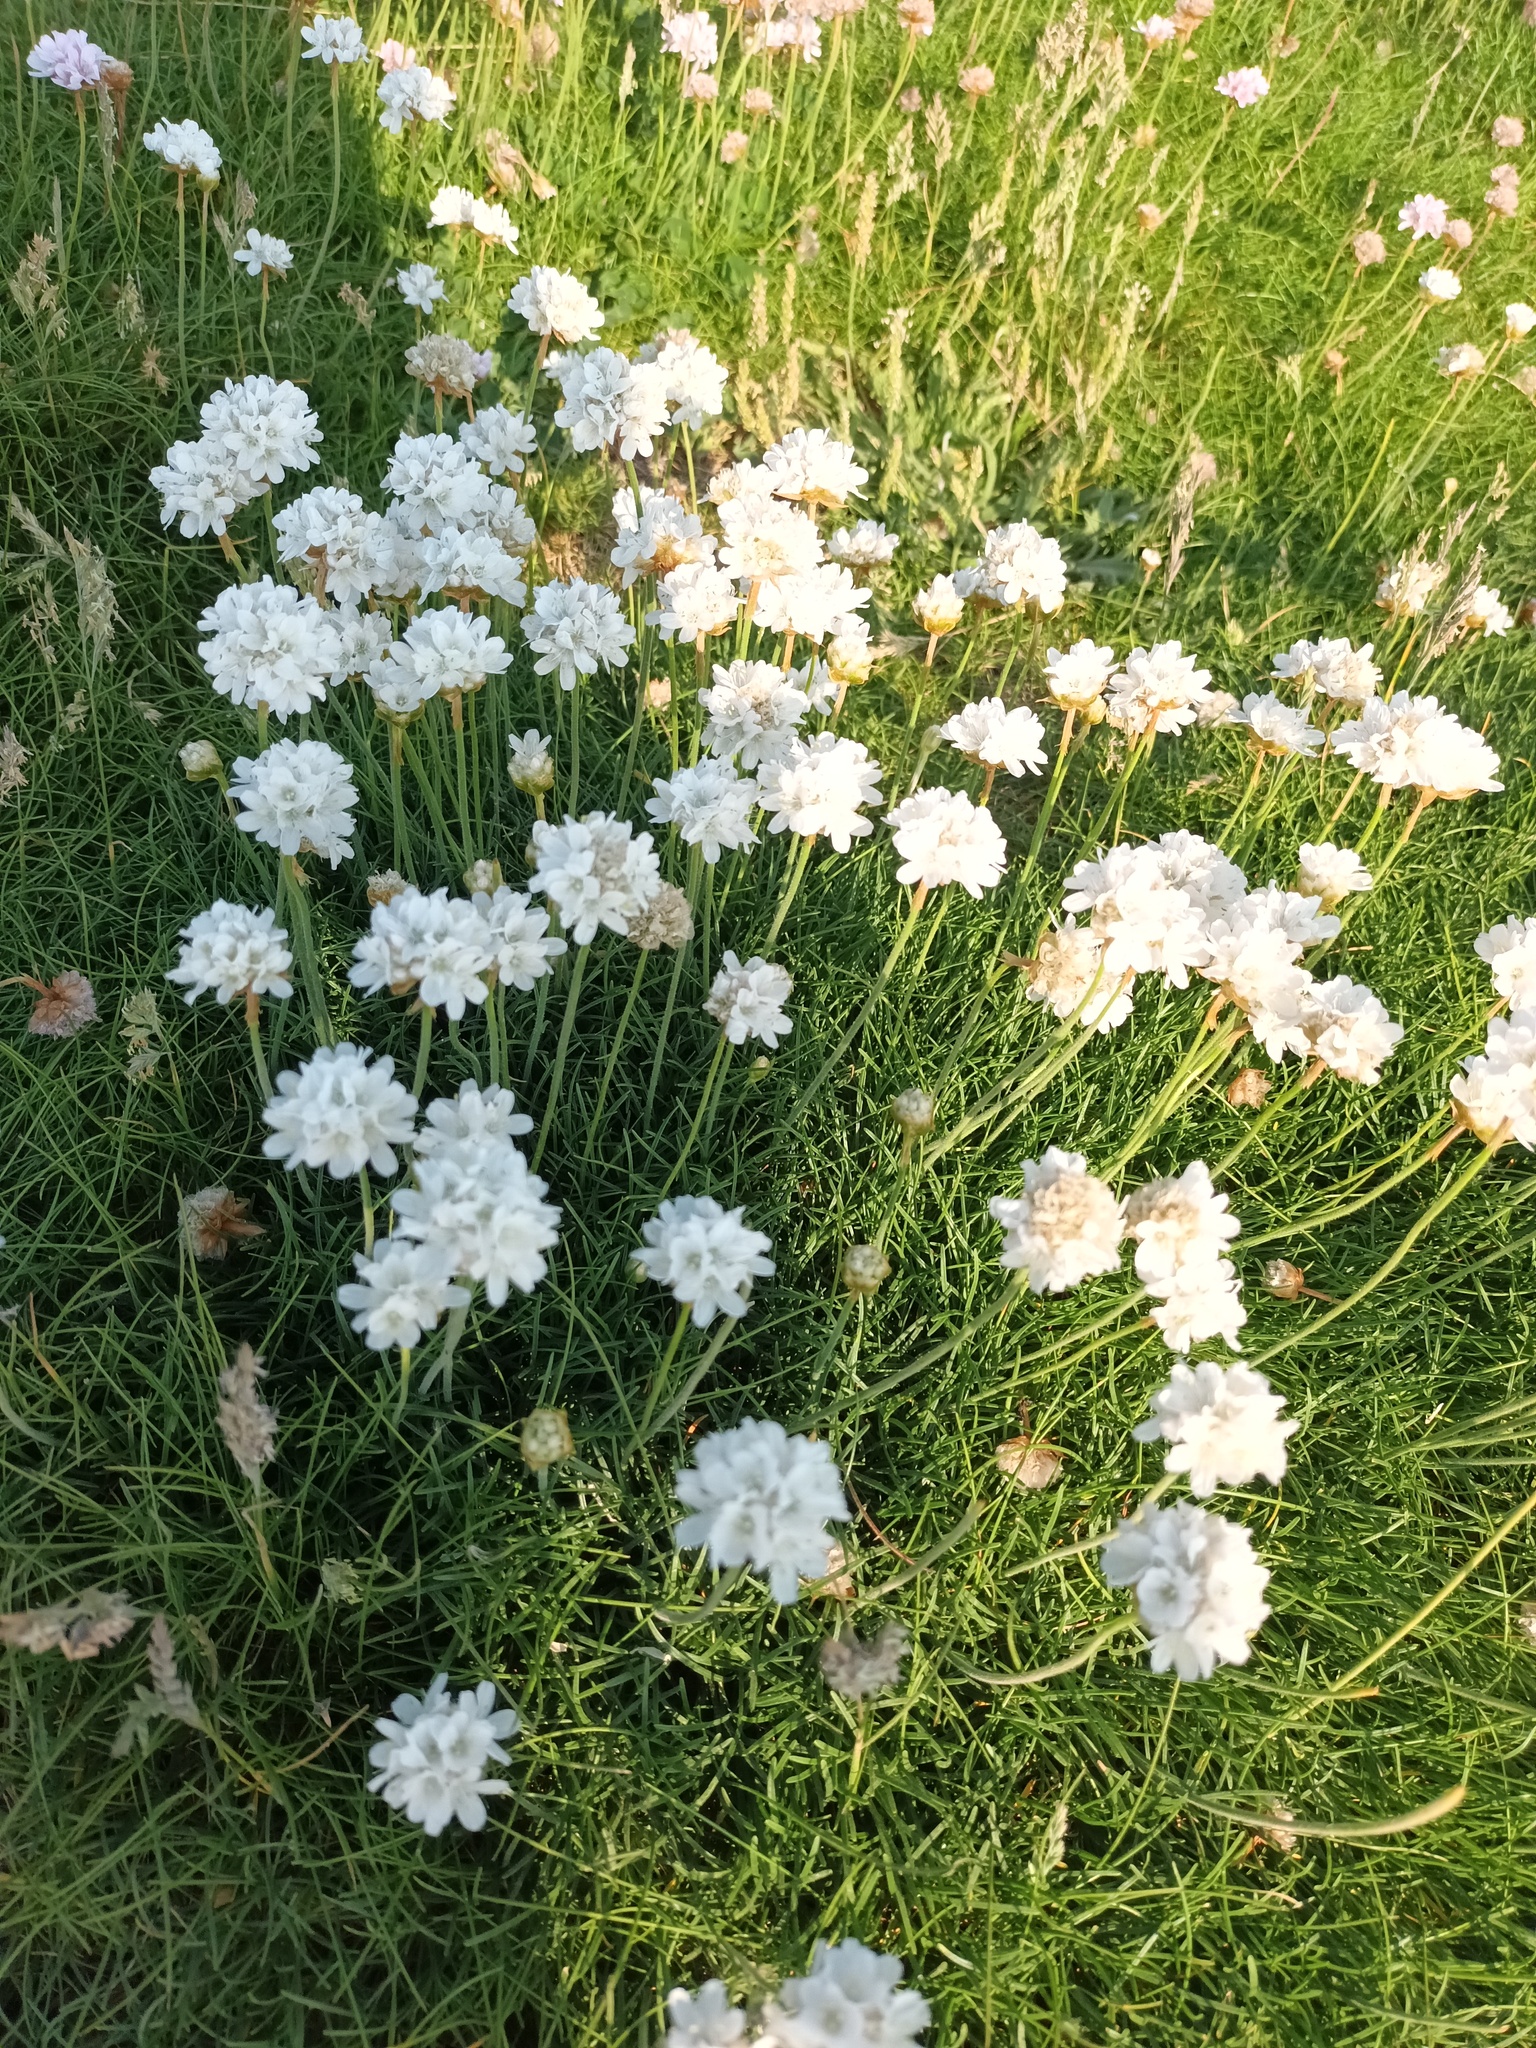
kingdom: Plantae
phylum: Tracheophyta
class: Magnoliopsida
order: Caryophyllales
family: Plumbaginaceae
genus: Armeria
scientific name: Armeria maritima
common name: Thrift
